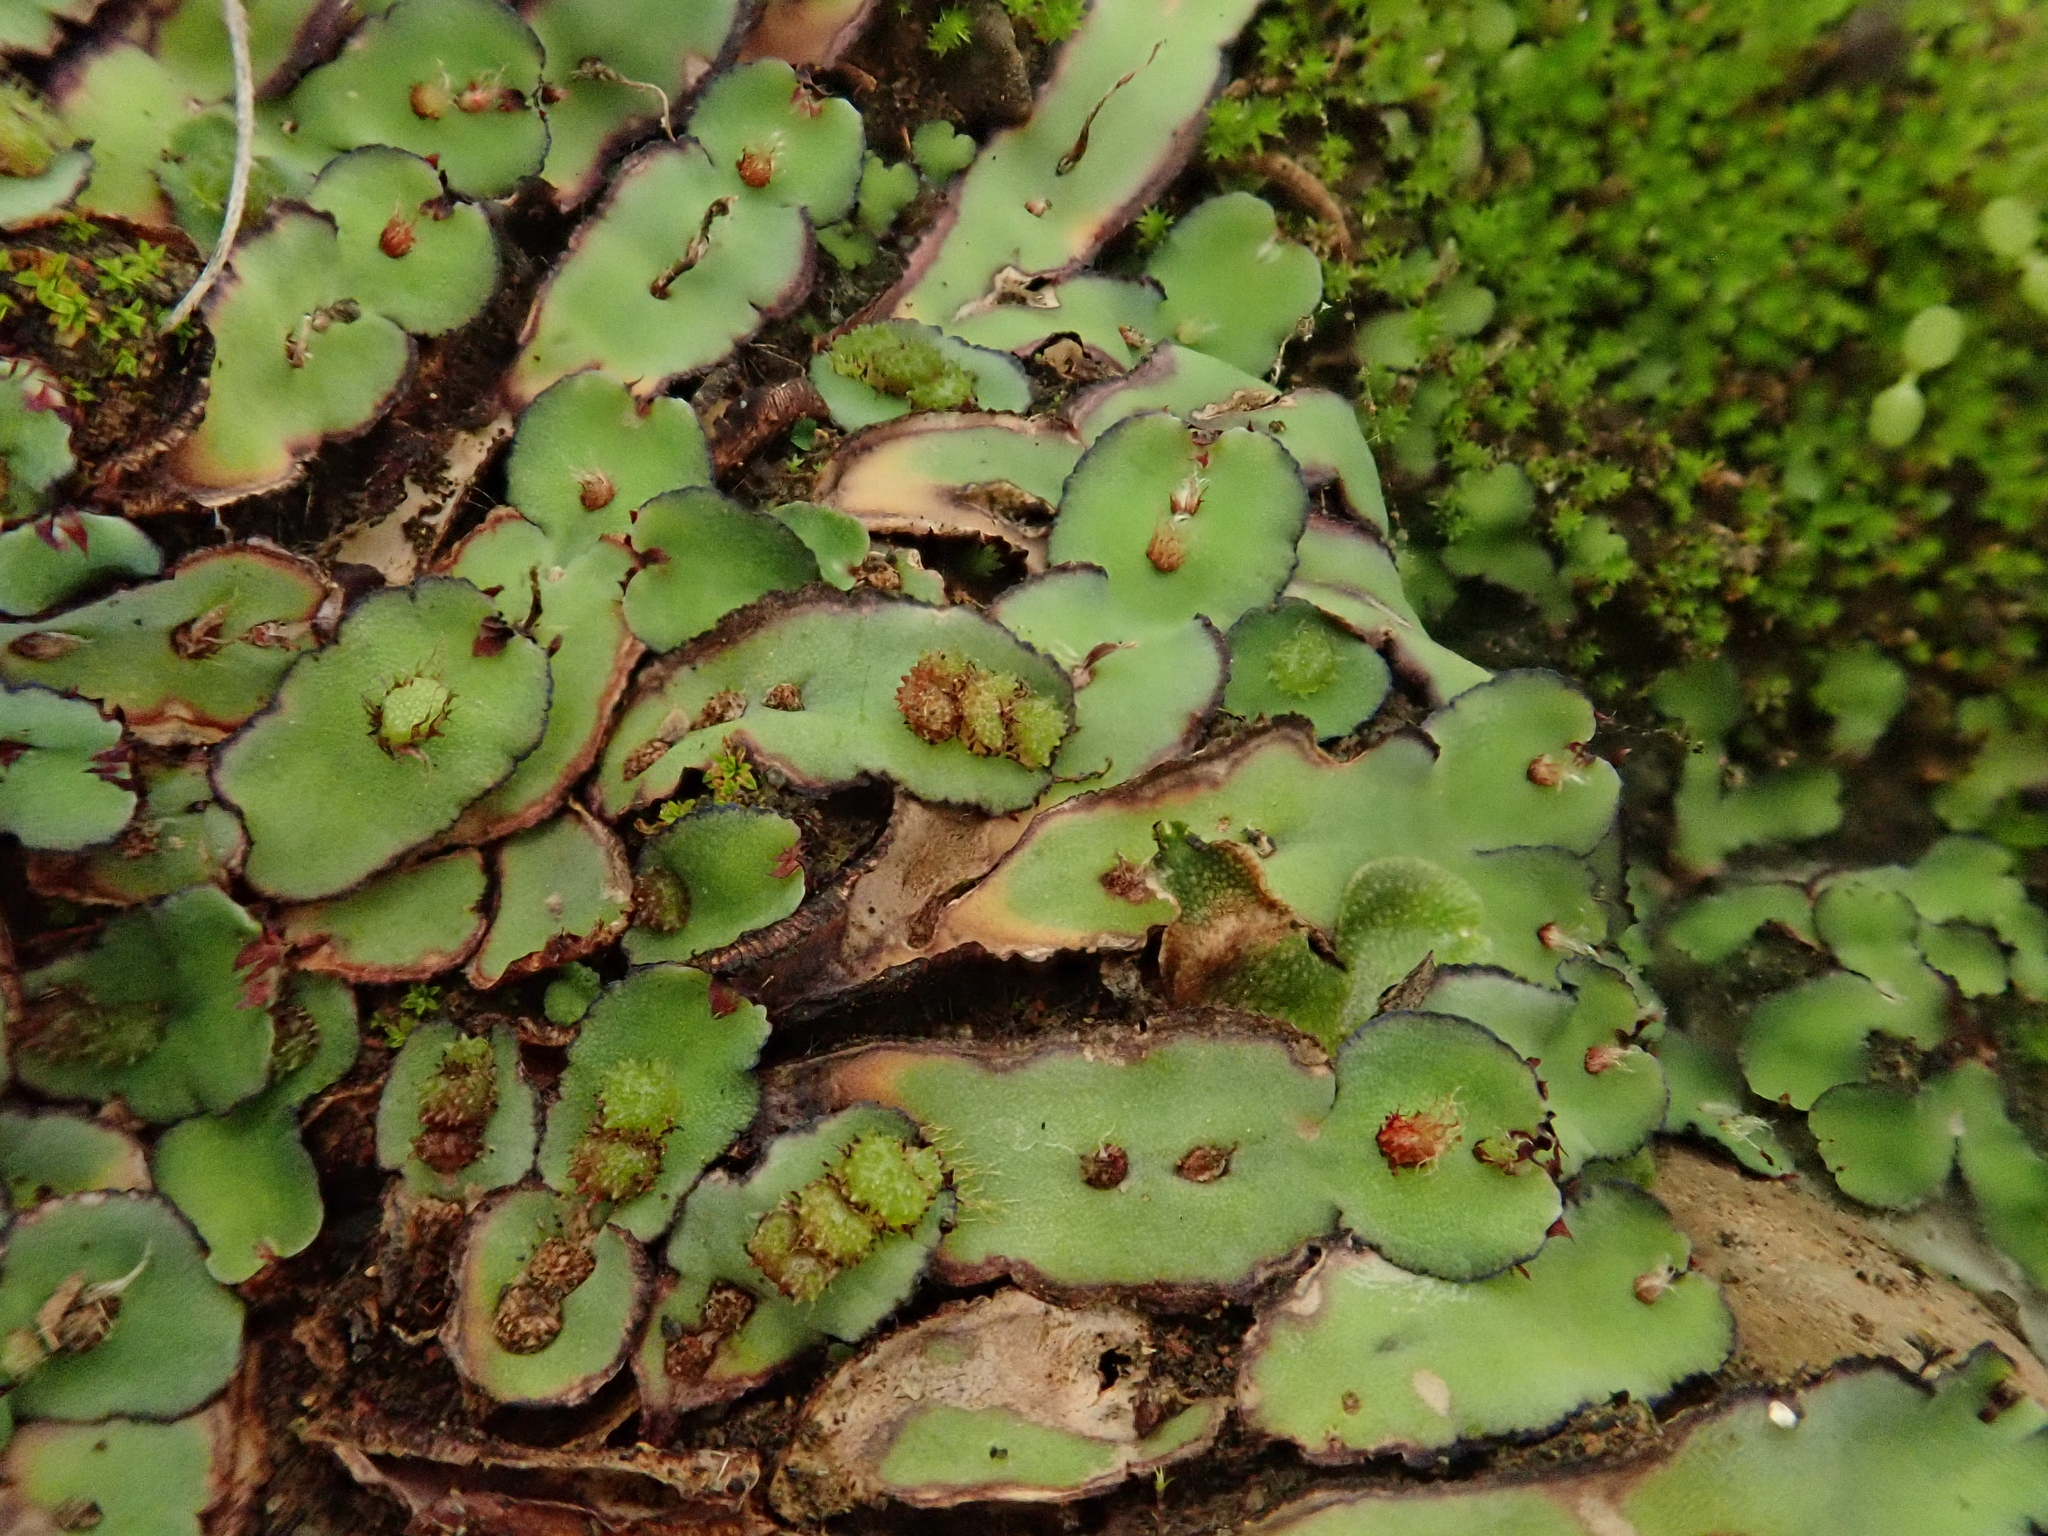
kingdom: Plantae
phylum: Marchantiophyta
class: Marchantiopsida
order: Marchantiales
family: Aytoniaceae
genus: Plagiochasma
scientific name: Plagiochasma rupestre
